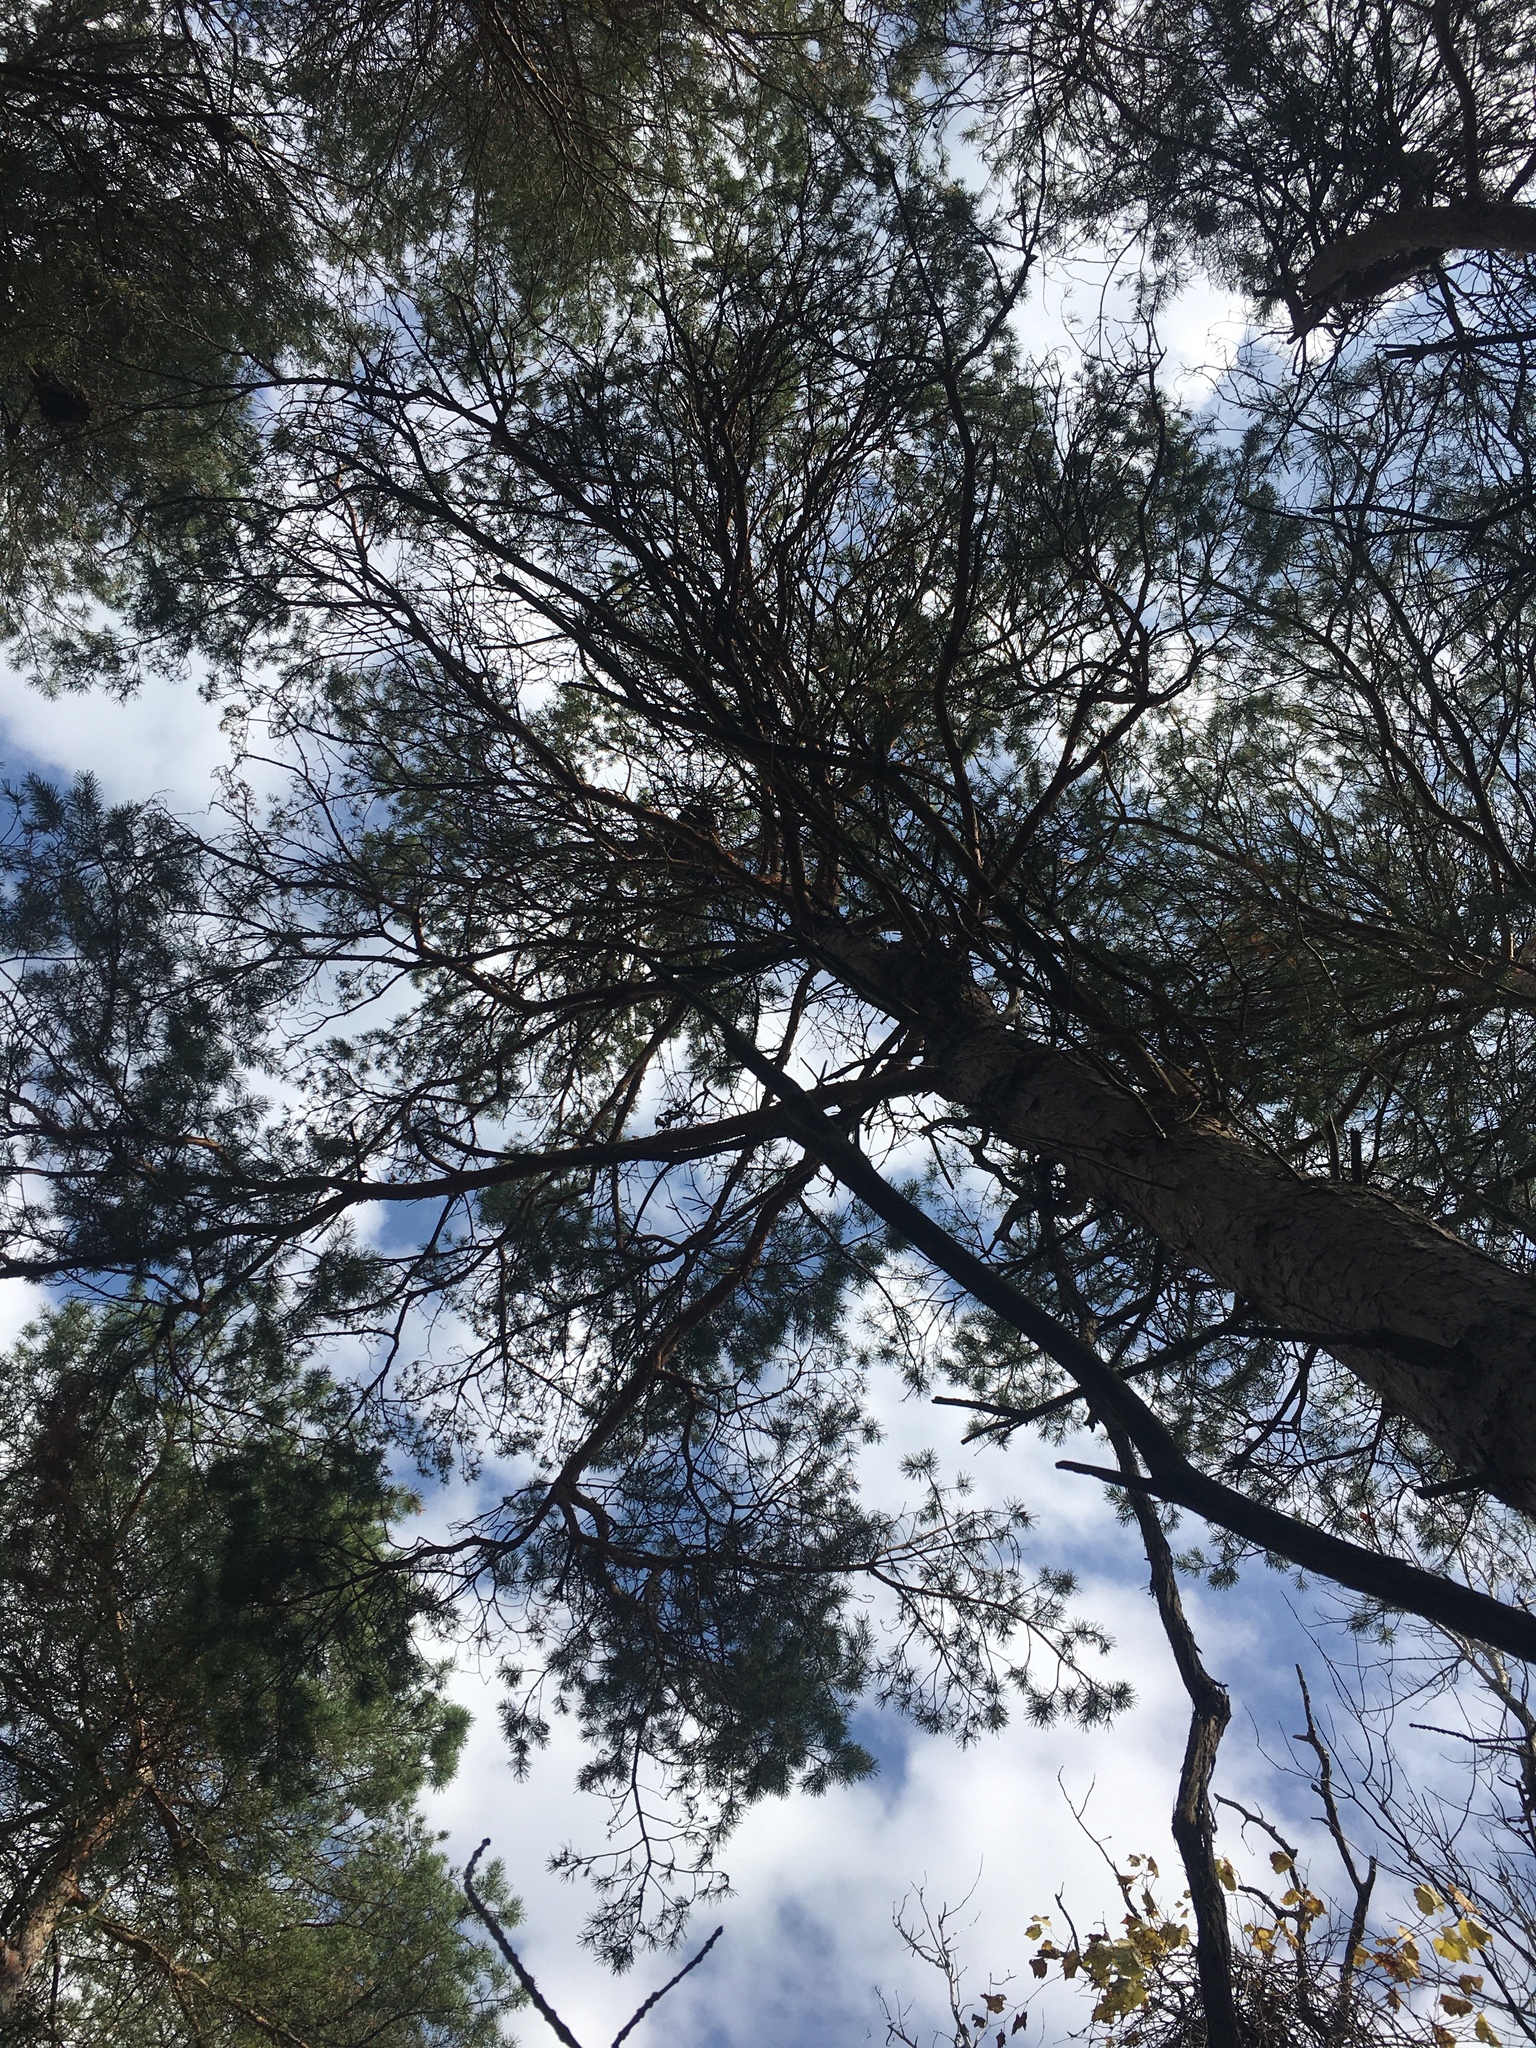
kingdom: Plantae
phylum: Tracheophyta
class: Pinopsida
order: Pinales
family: Pinaceae
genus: Pinus
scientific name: Pinus sylvestris
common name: Scots pine
